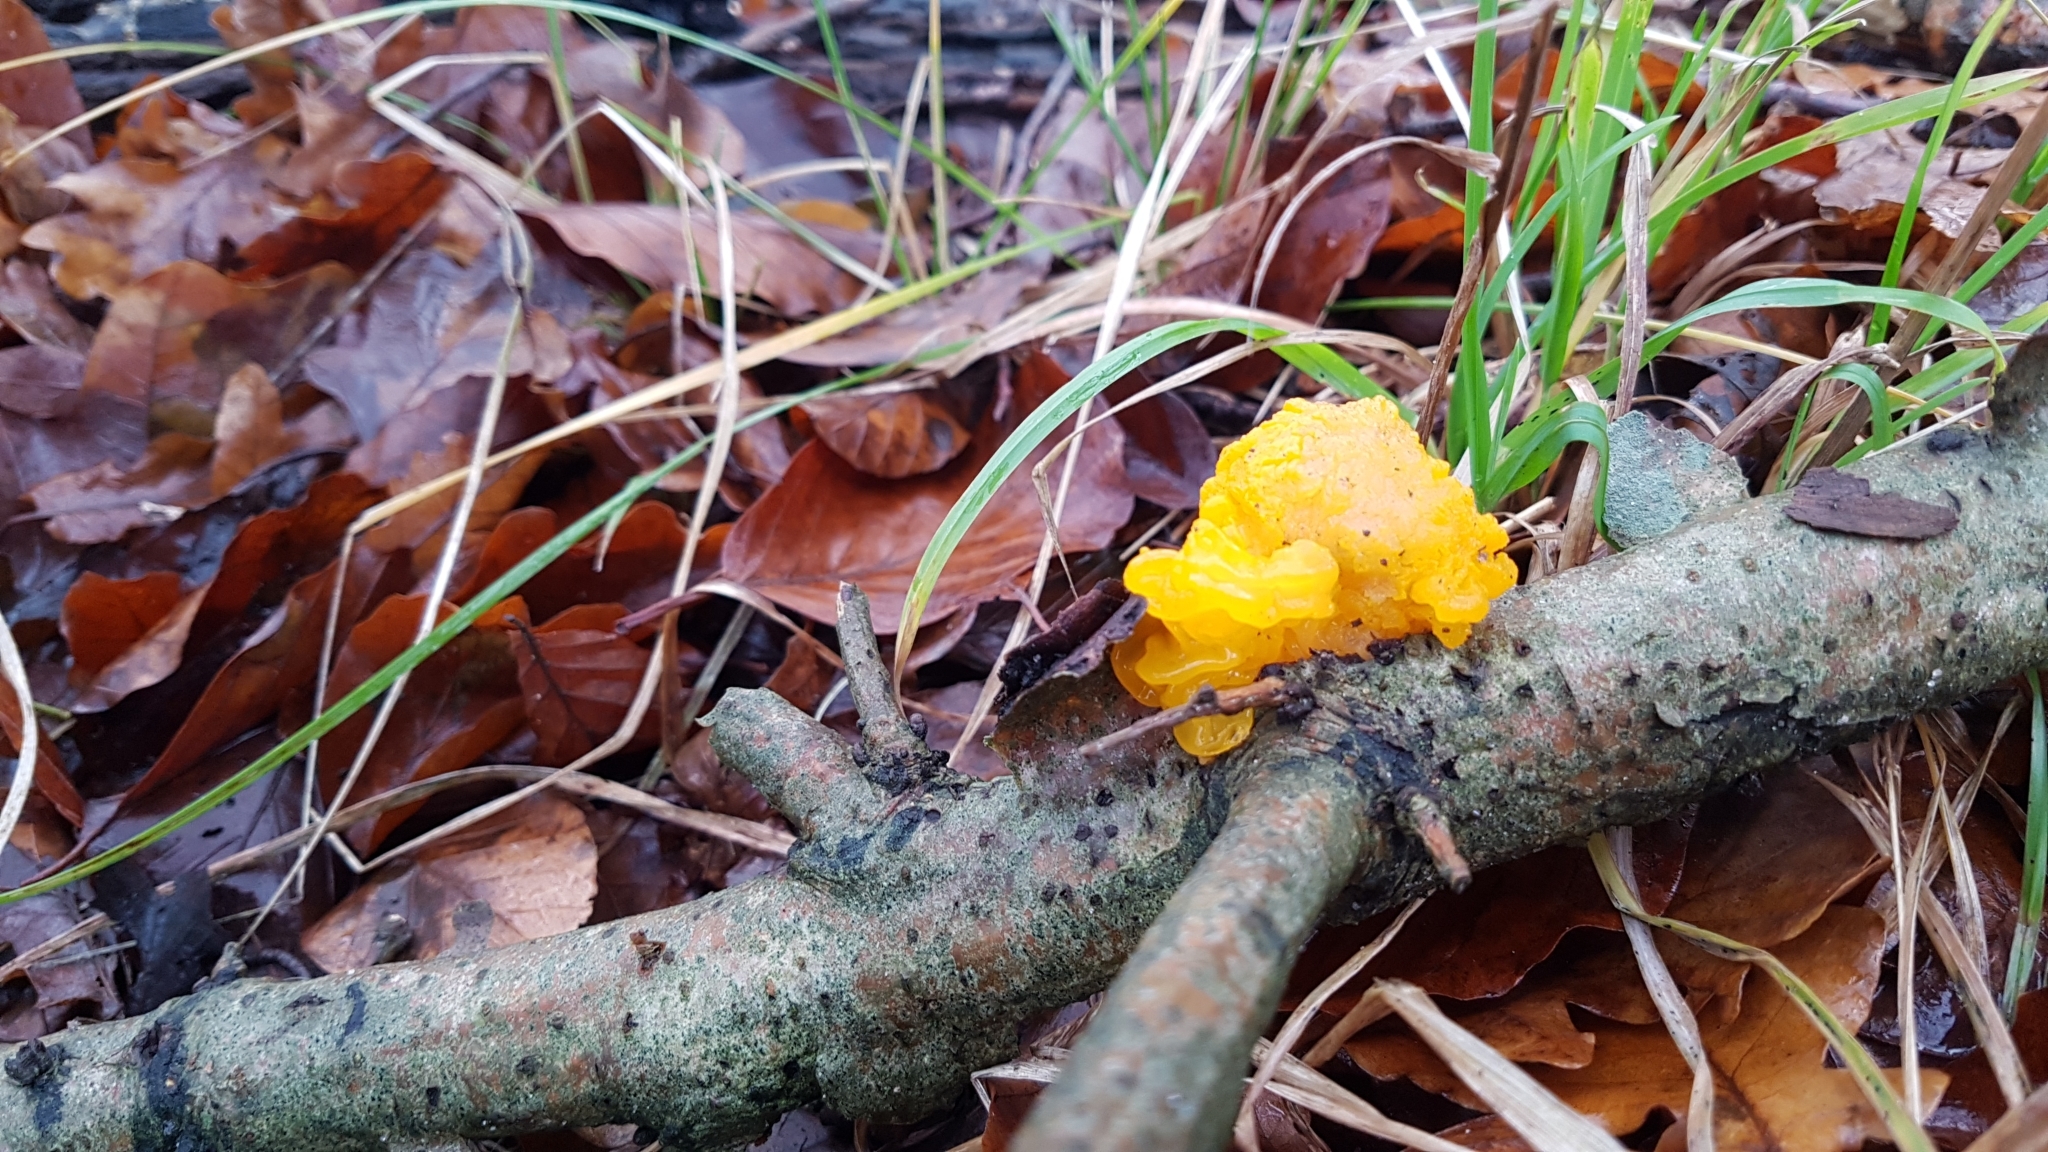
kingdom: Fungi
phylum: Basidiomycota
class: Tremellomycetes
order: Tremellales
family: Tremellaceae
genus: Tremella
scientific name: Tremella mesenterica
